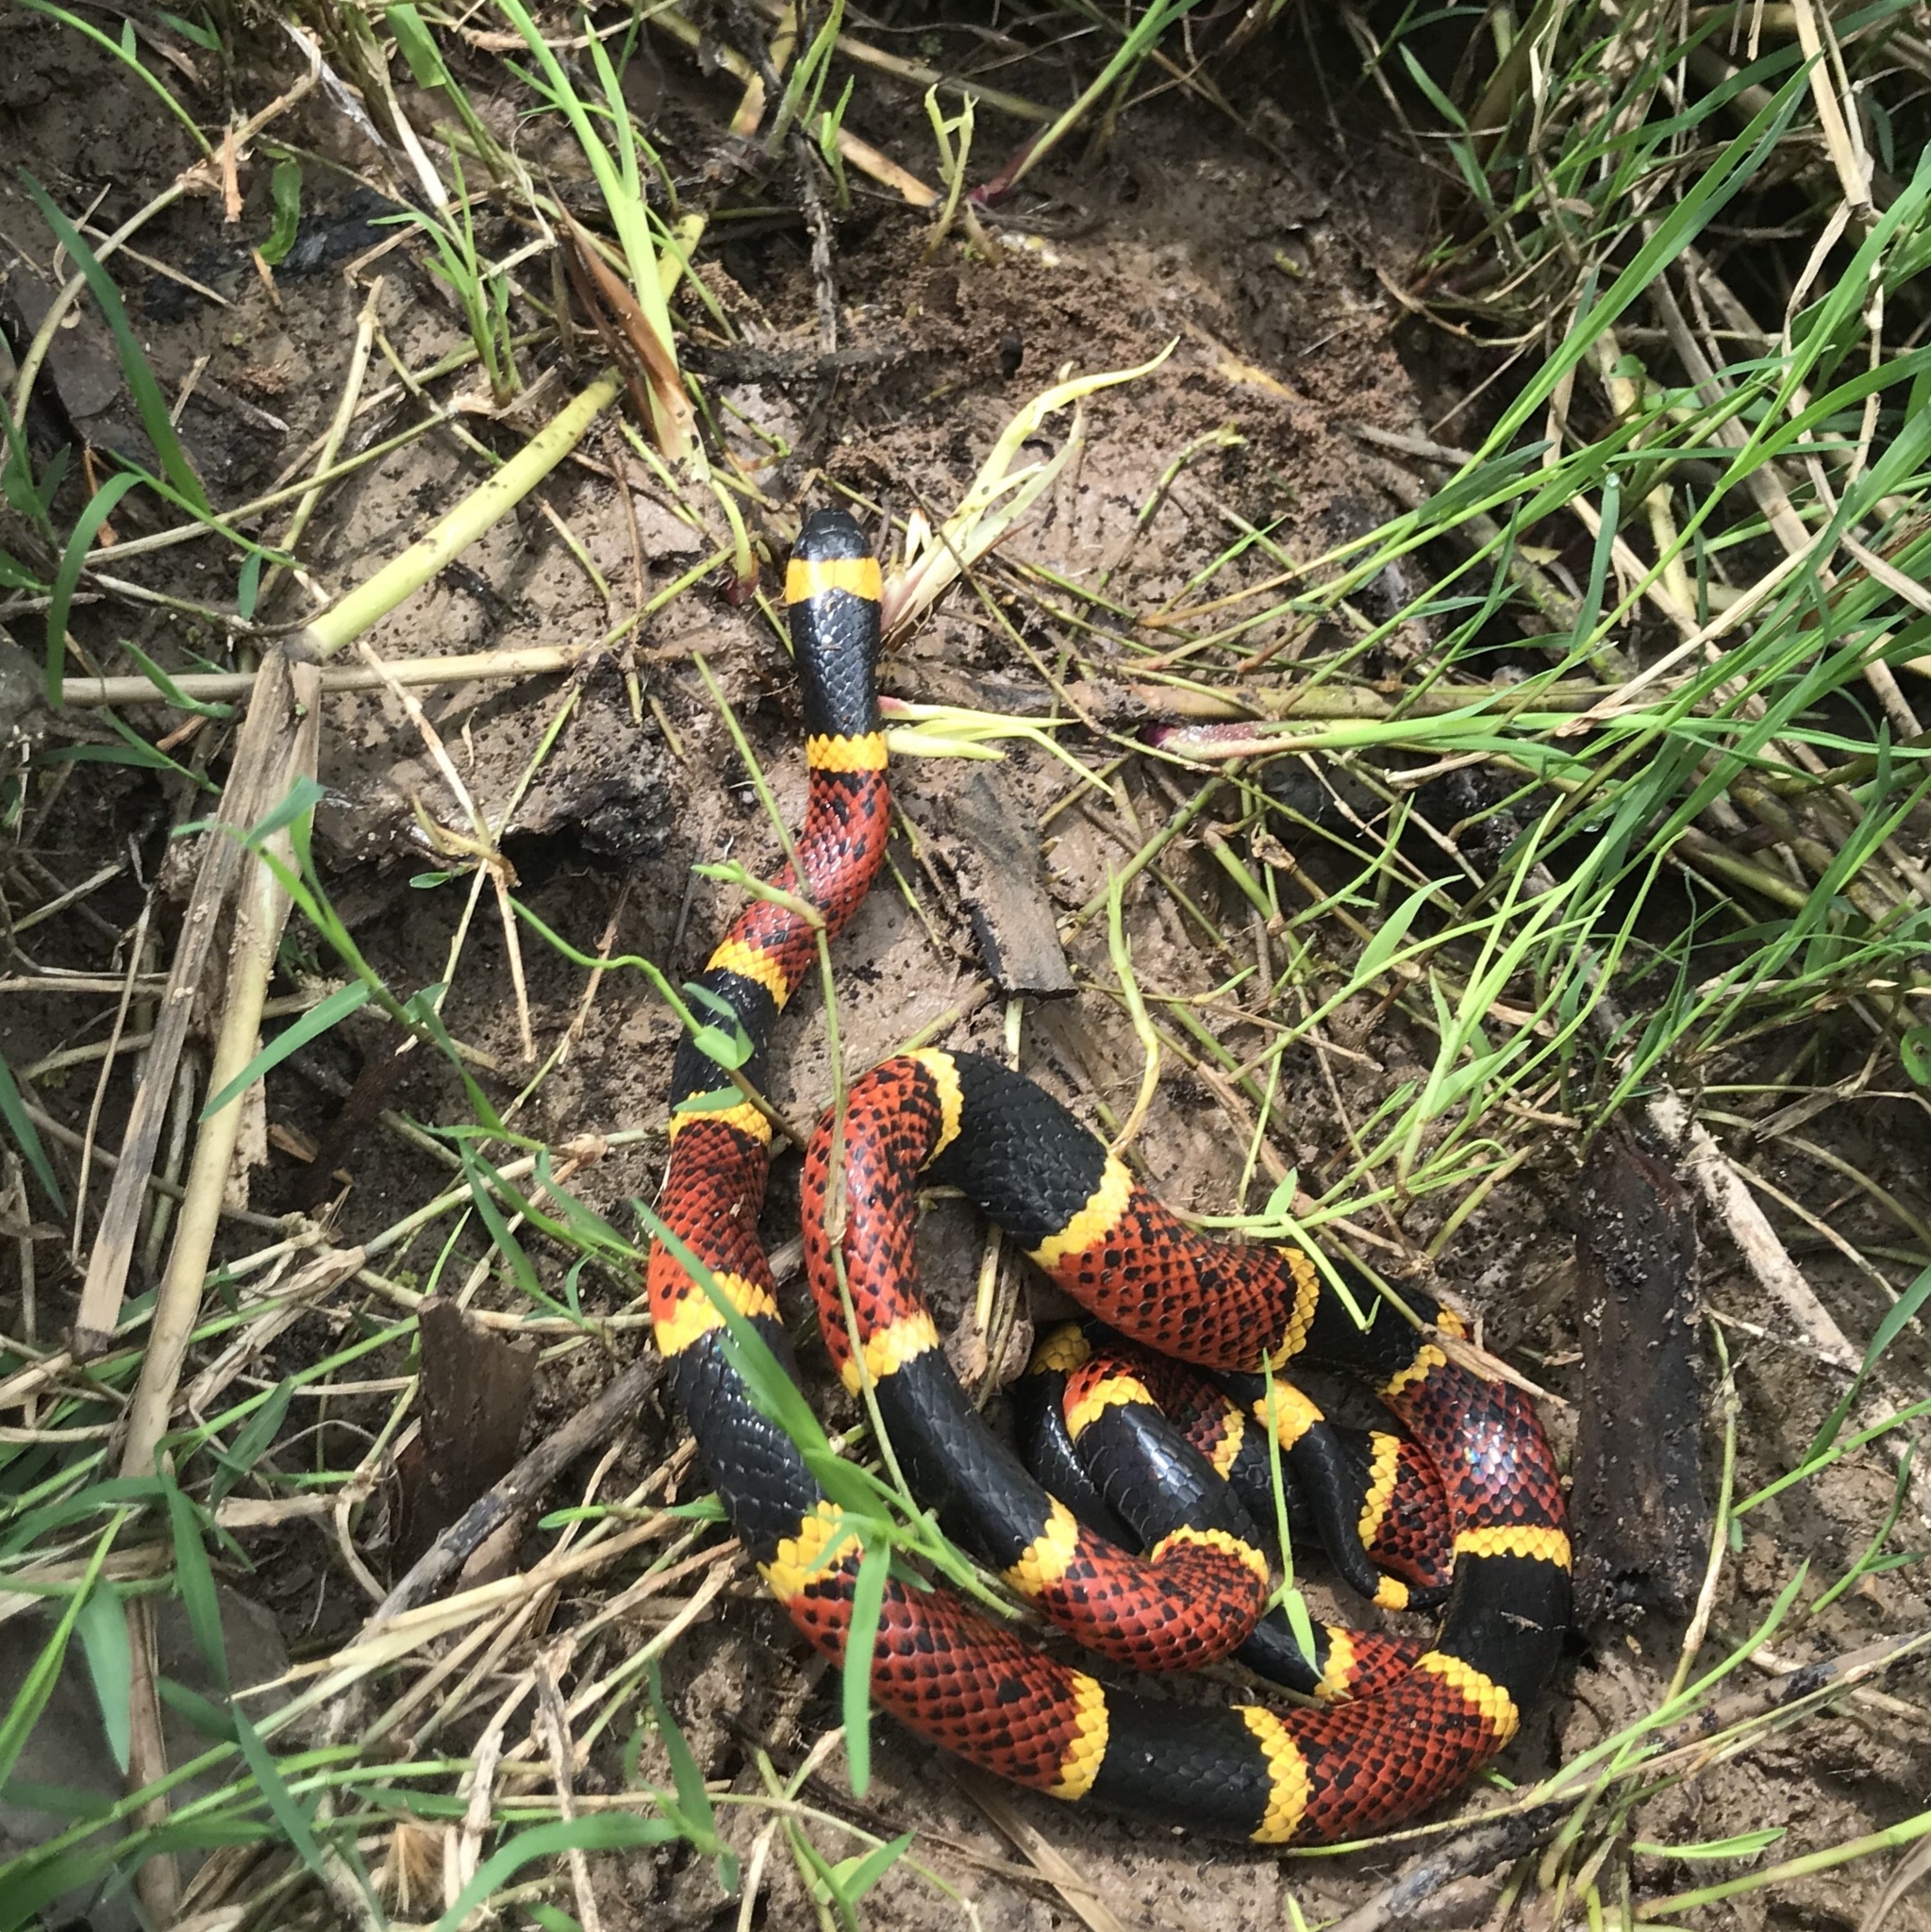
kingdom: Animalia
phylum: Chordata
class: Squamata
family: Elapidae
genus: Micrurus
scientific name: Micrurus tener
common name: Texas coral snake
